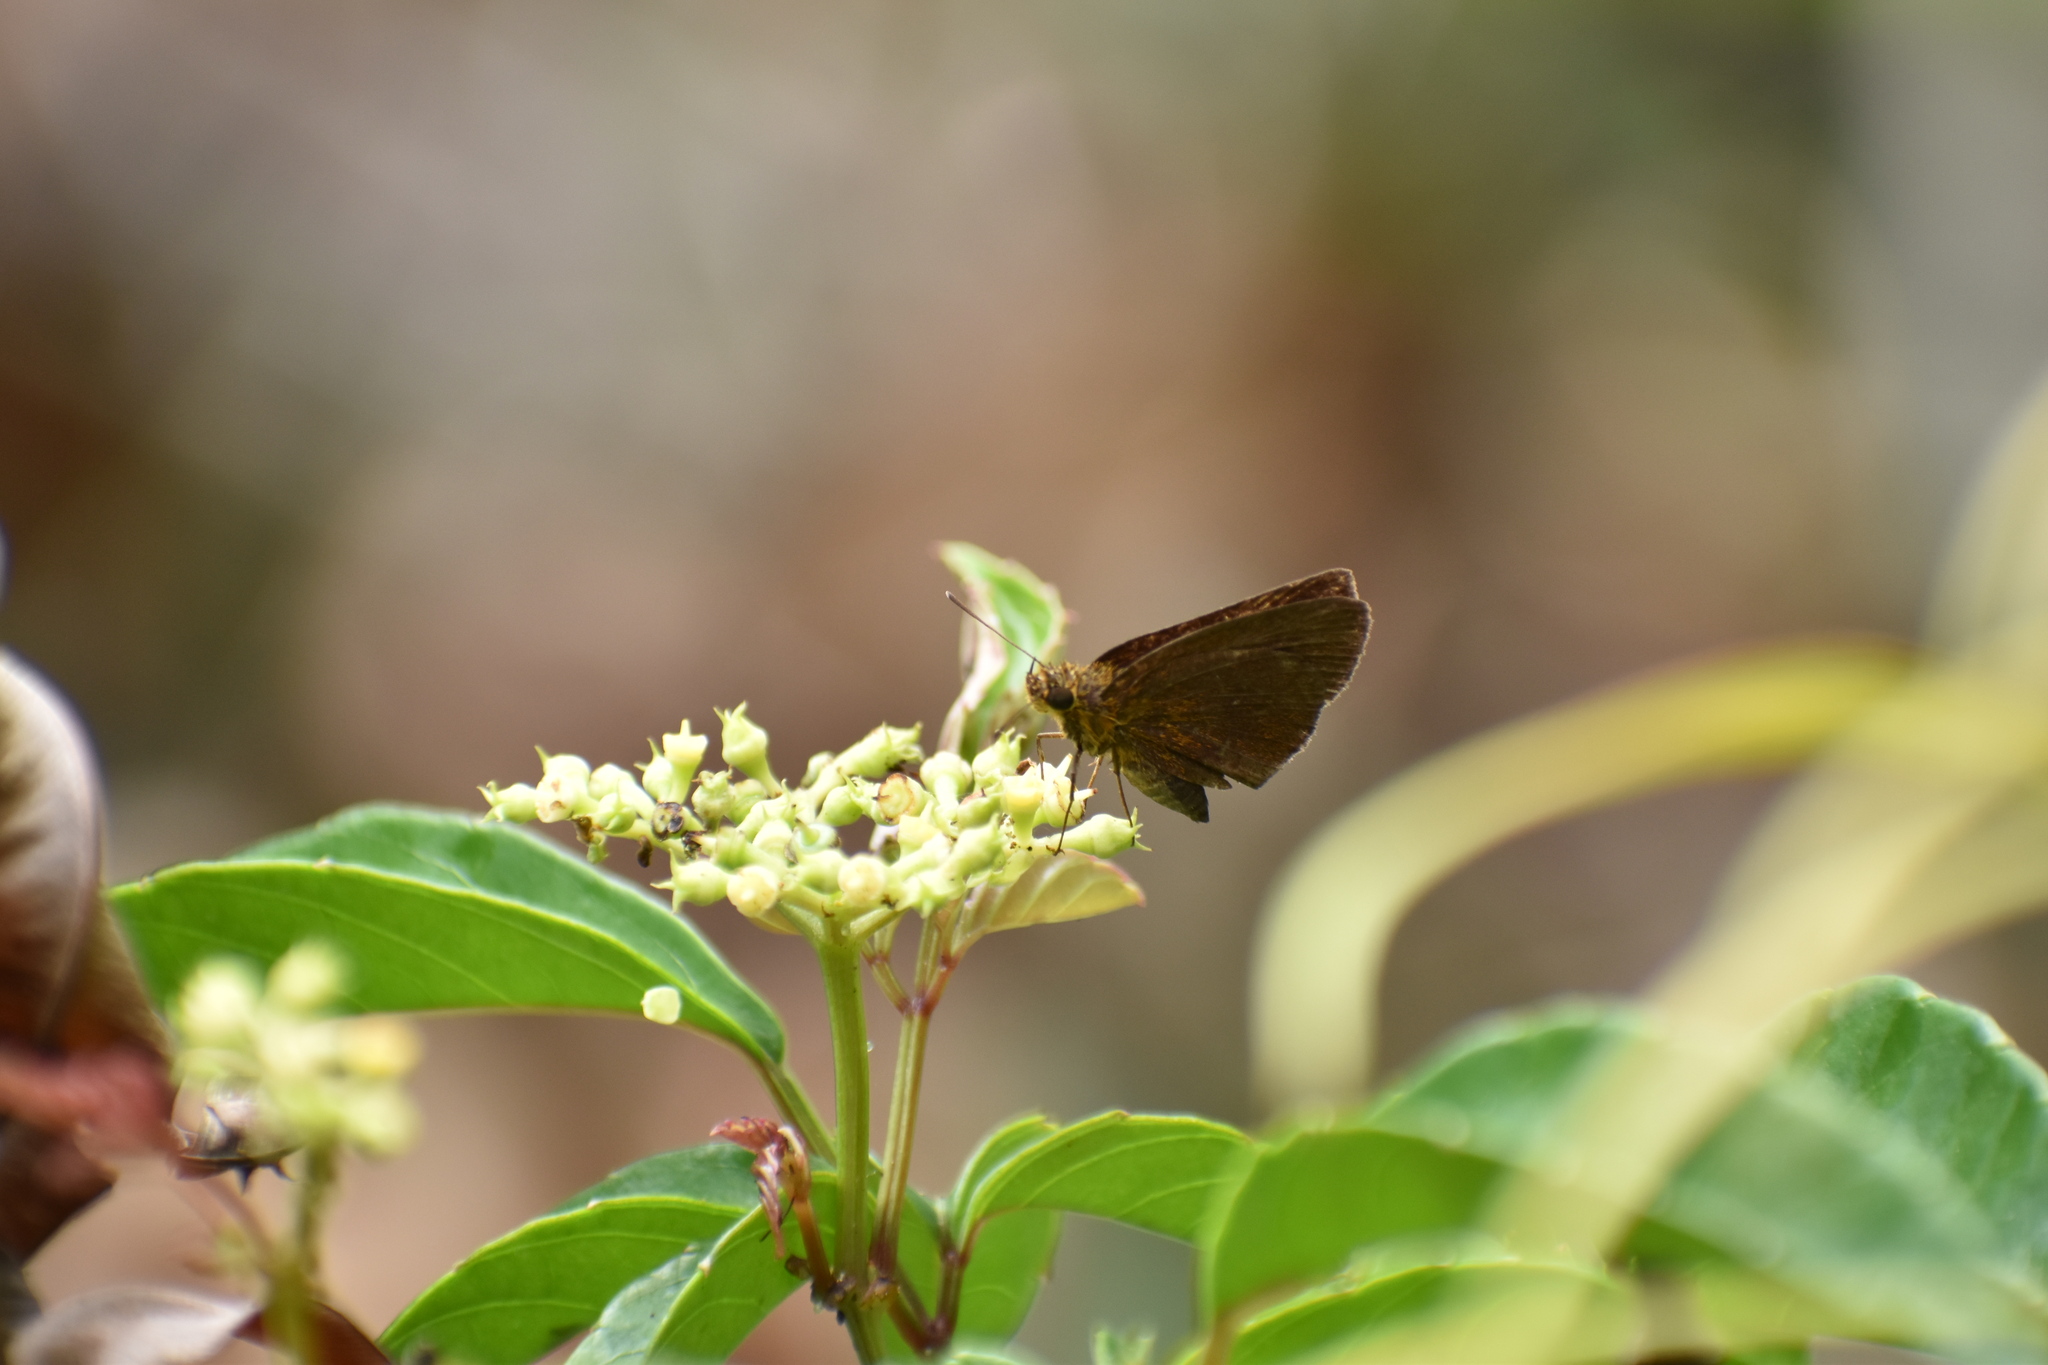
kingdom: Animalia
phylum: Arthropoda
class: Insecta
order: Lepidoptera
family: Hesperiidae
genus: Astictopterus
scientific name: Astictopterus jama
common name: Forest hopper
